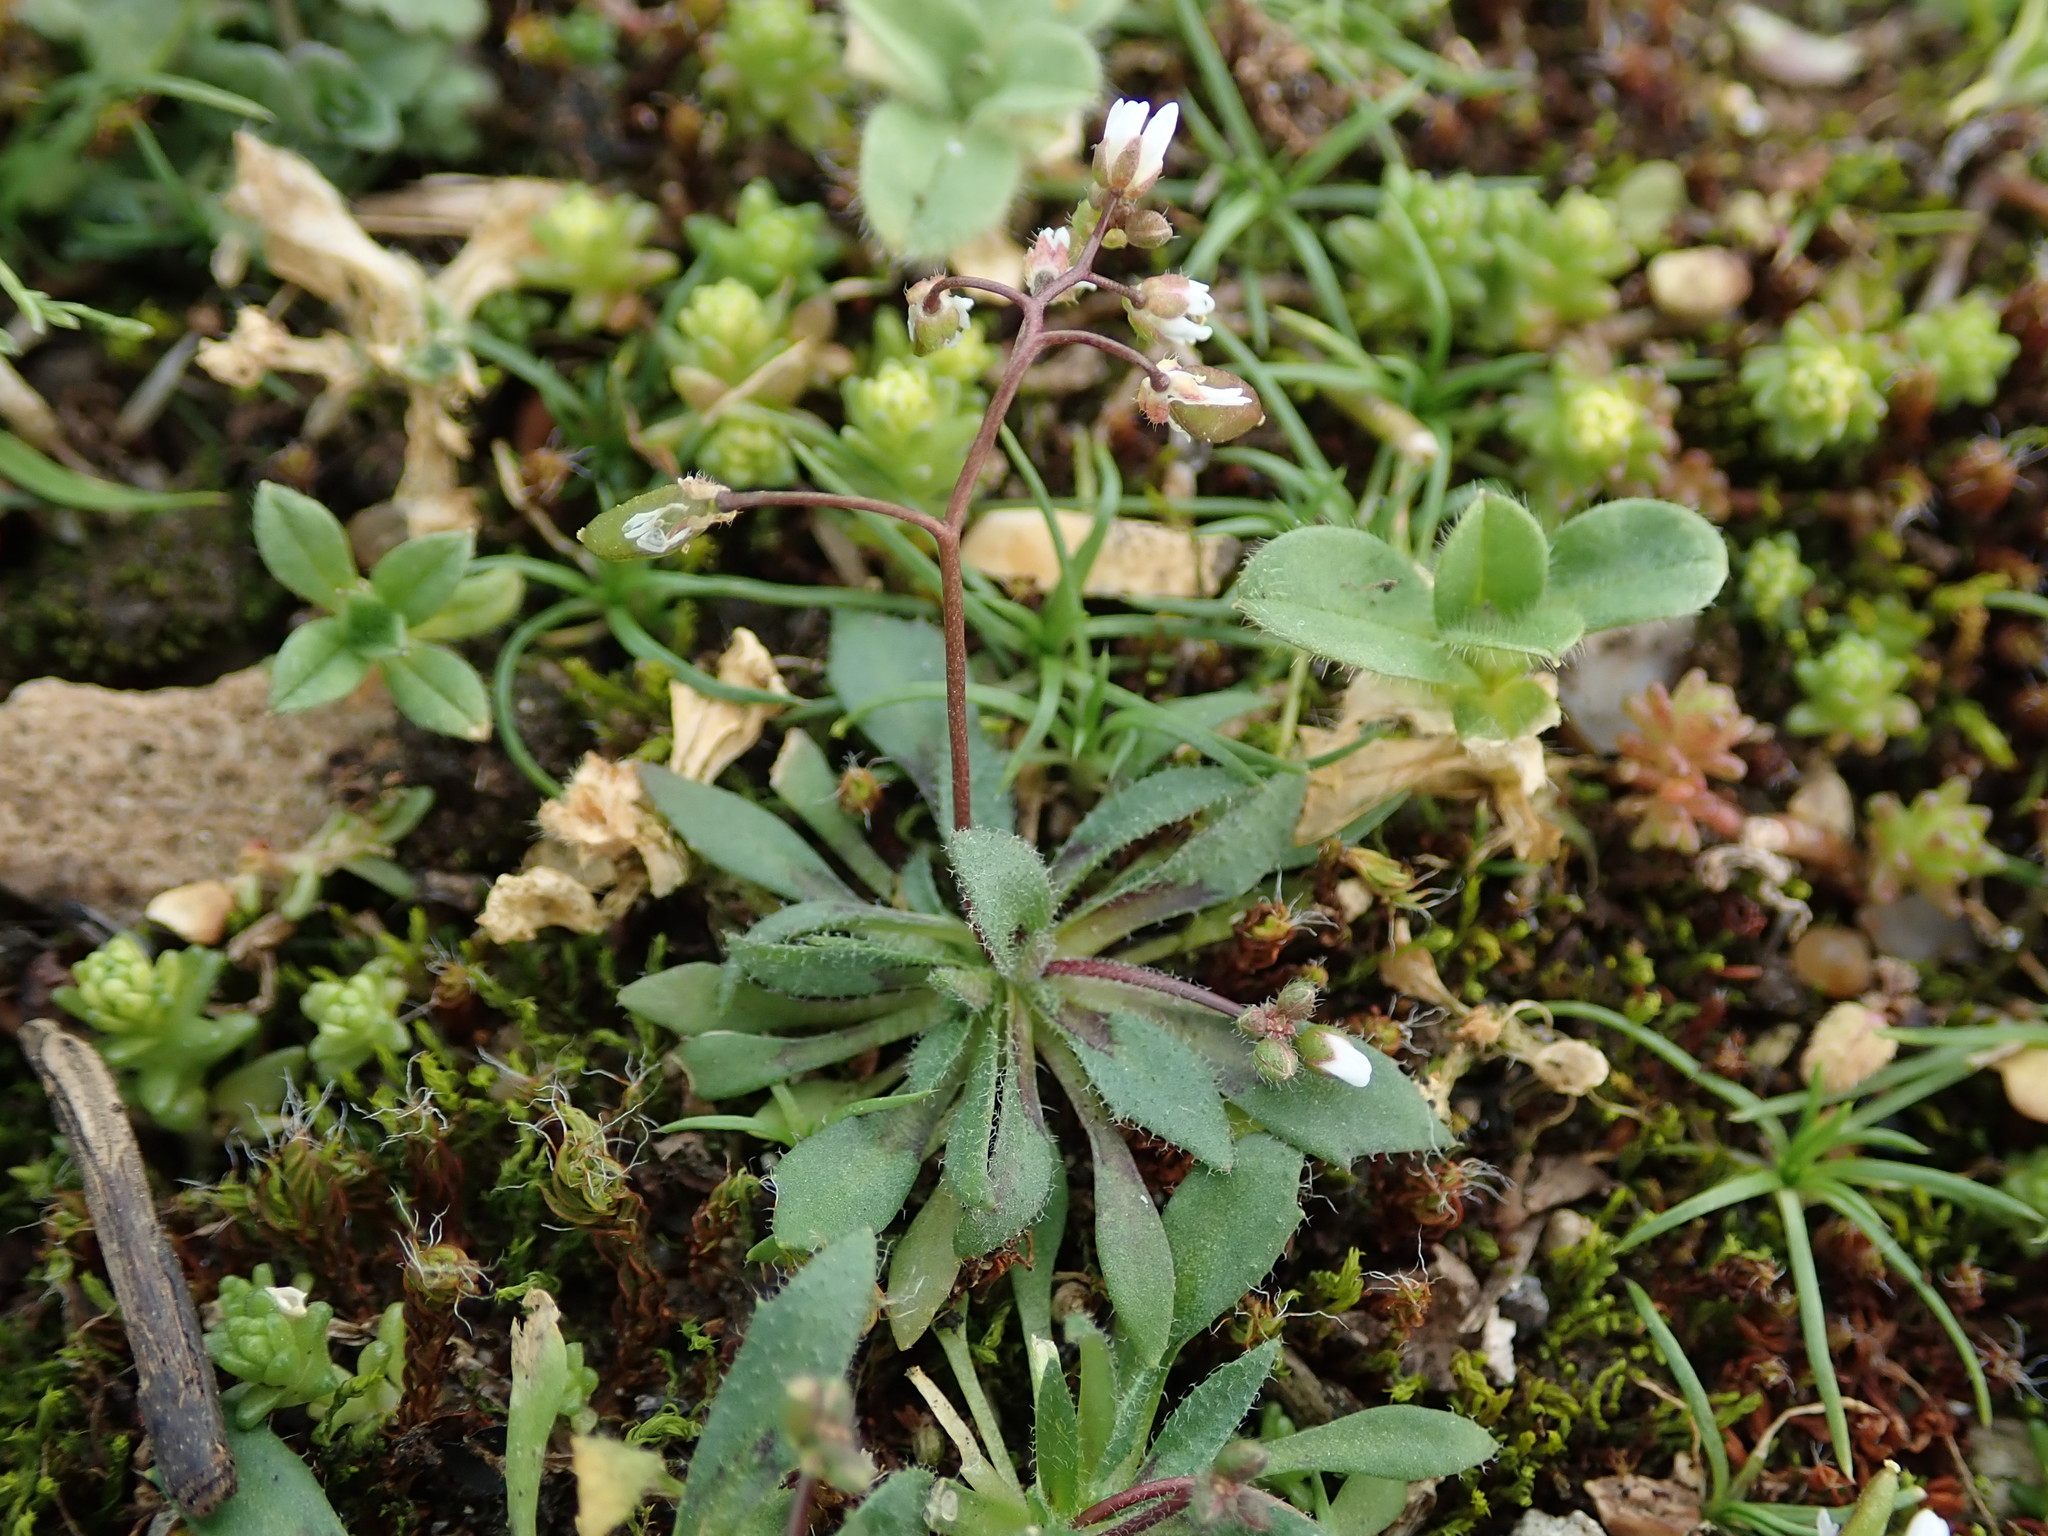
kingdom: Plantae
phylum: Tracheophyta
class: Magnoliopsida
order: Brassicales
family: Brassicaceae
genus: Draba
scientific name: Draba verna
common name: Spring draba
